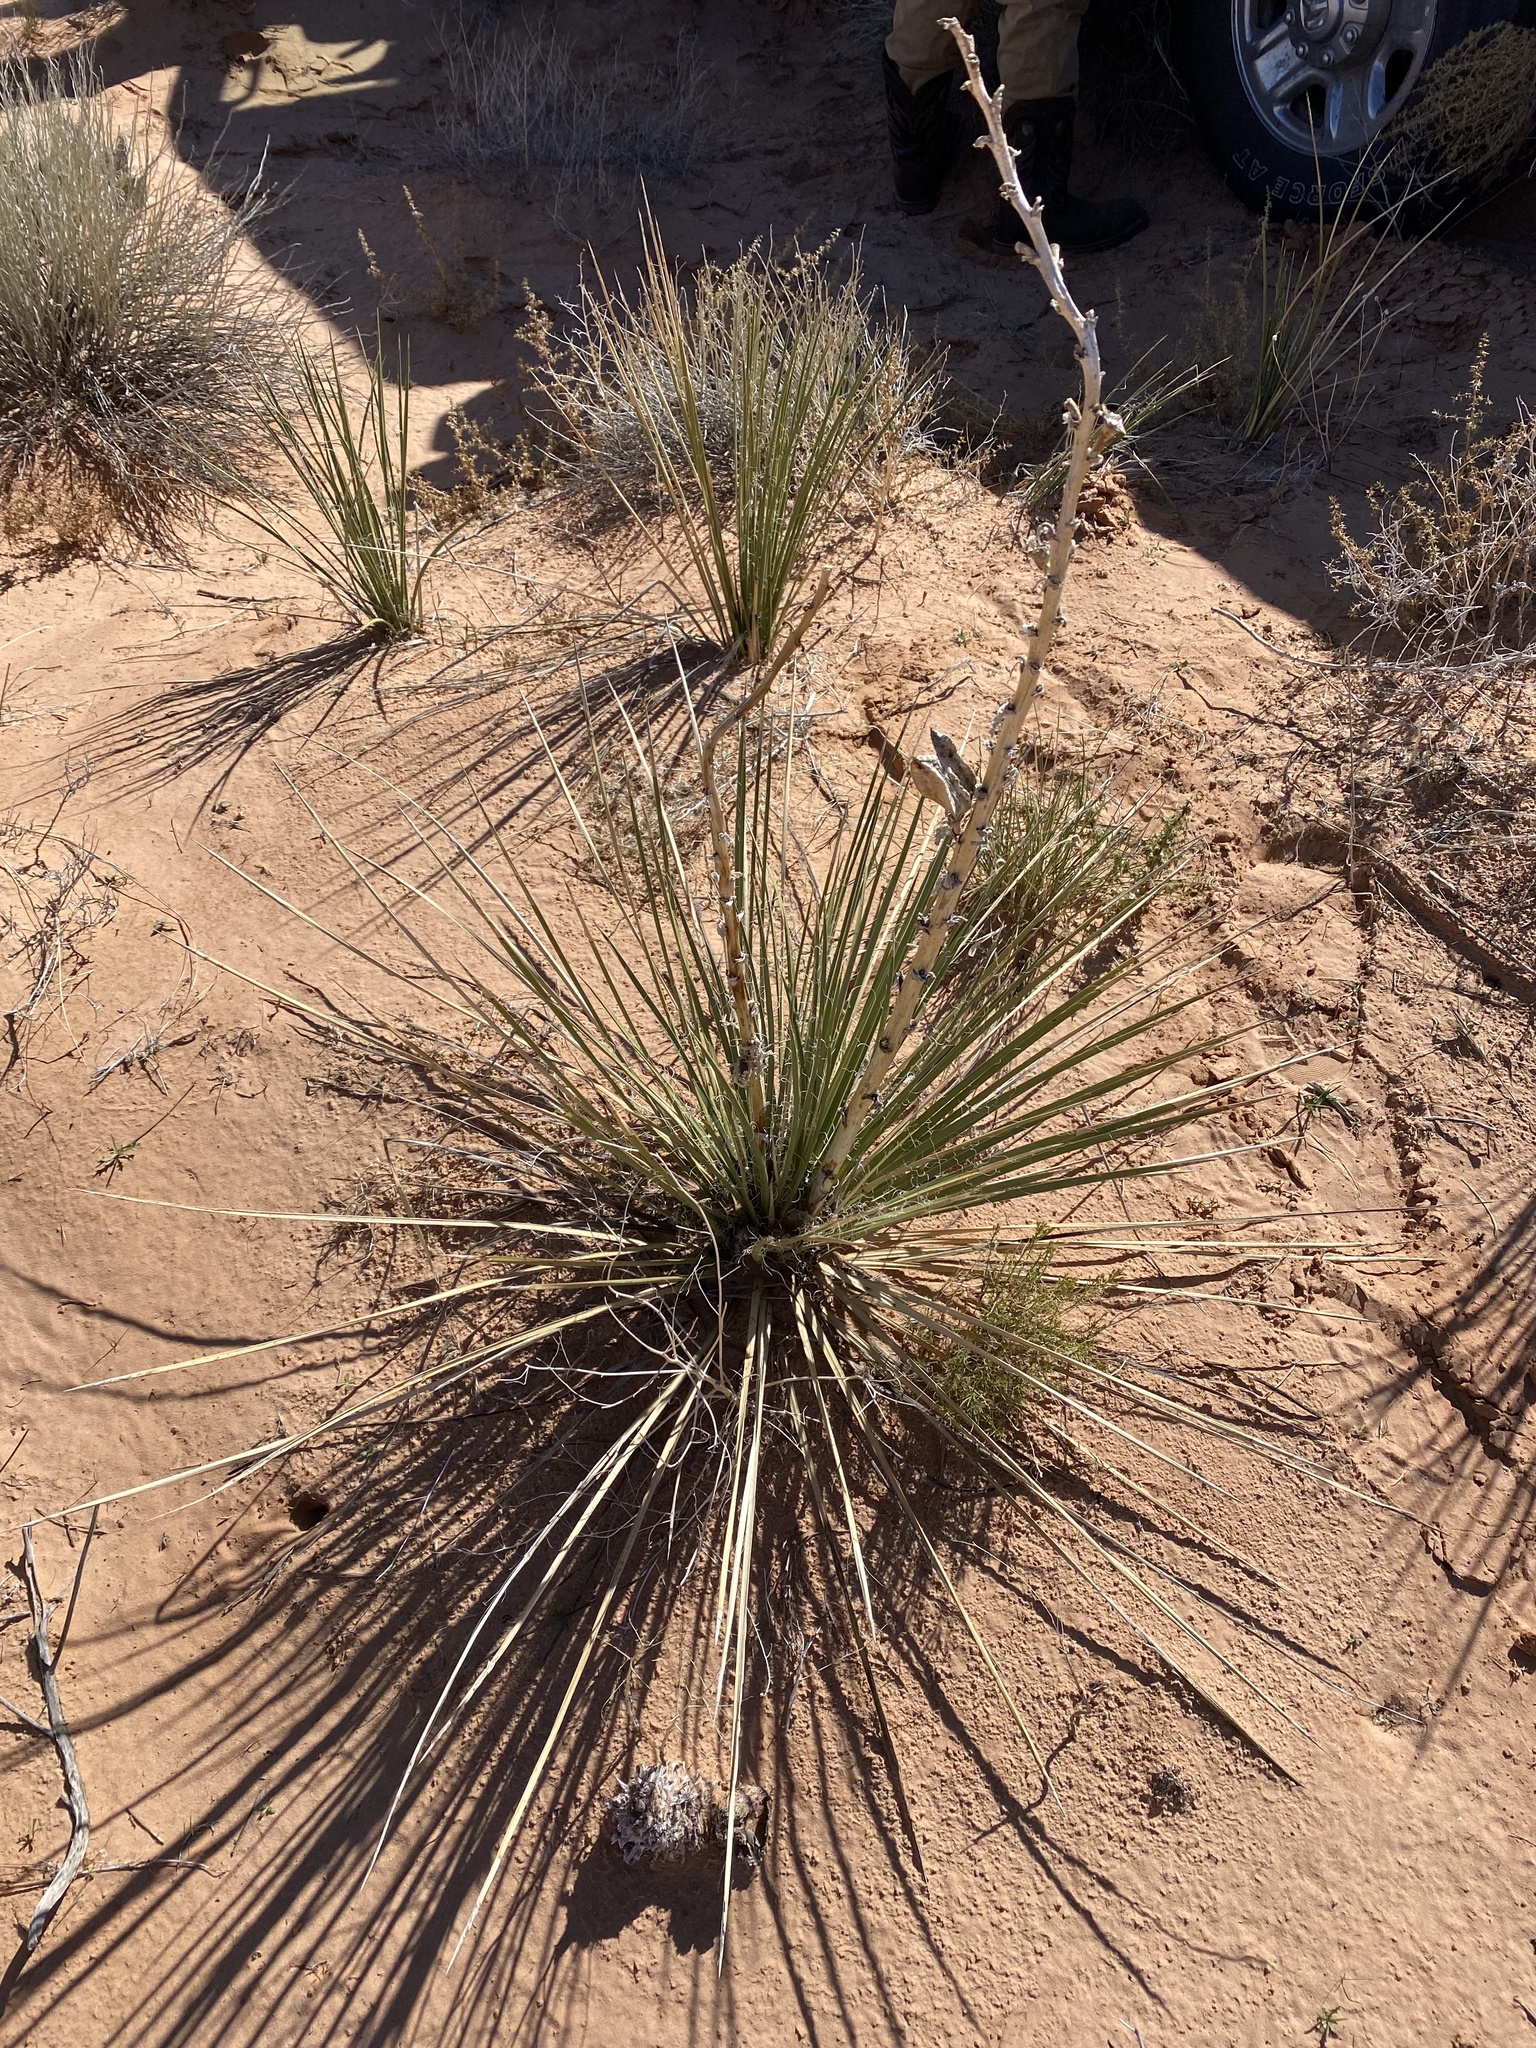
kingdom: Plantae
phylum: Tracheophyta
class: Liliopsida
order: Asparagales
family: Asparagaceae
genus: Yucca
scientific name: Yucca harrimaniae
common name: Harriman's yucca
